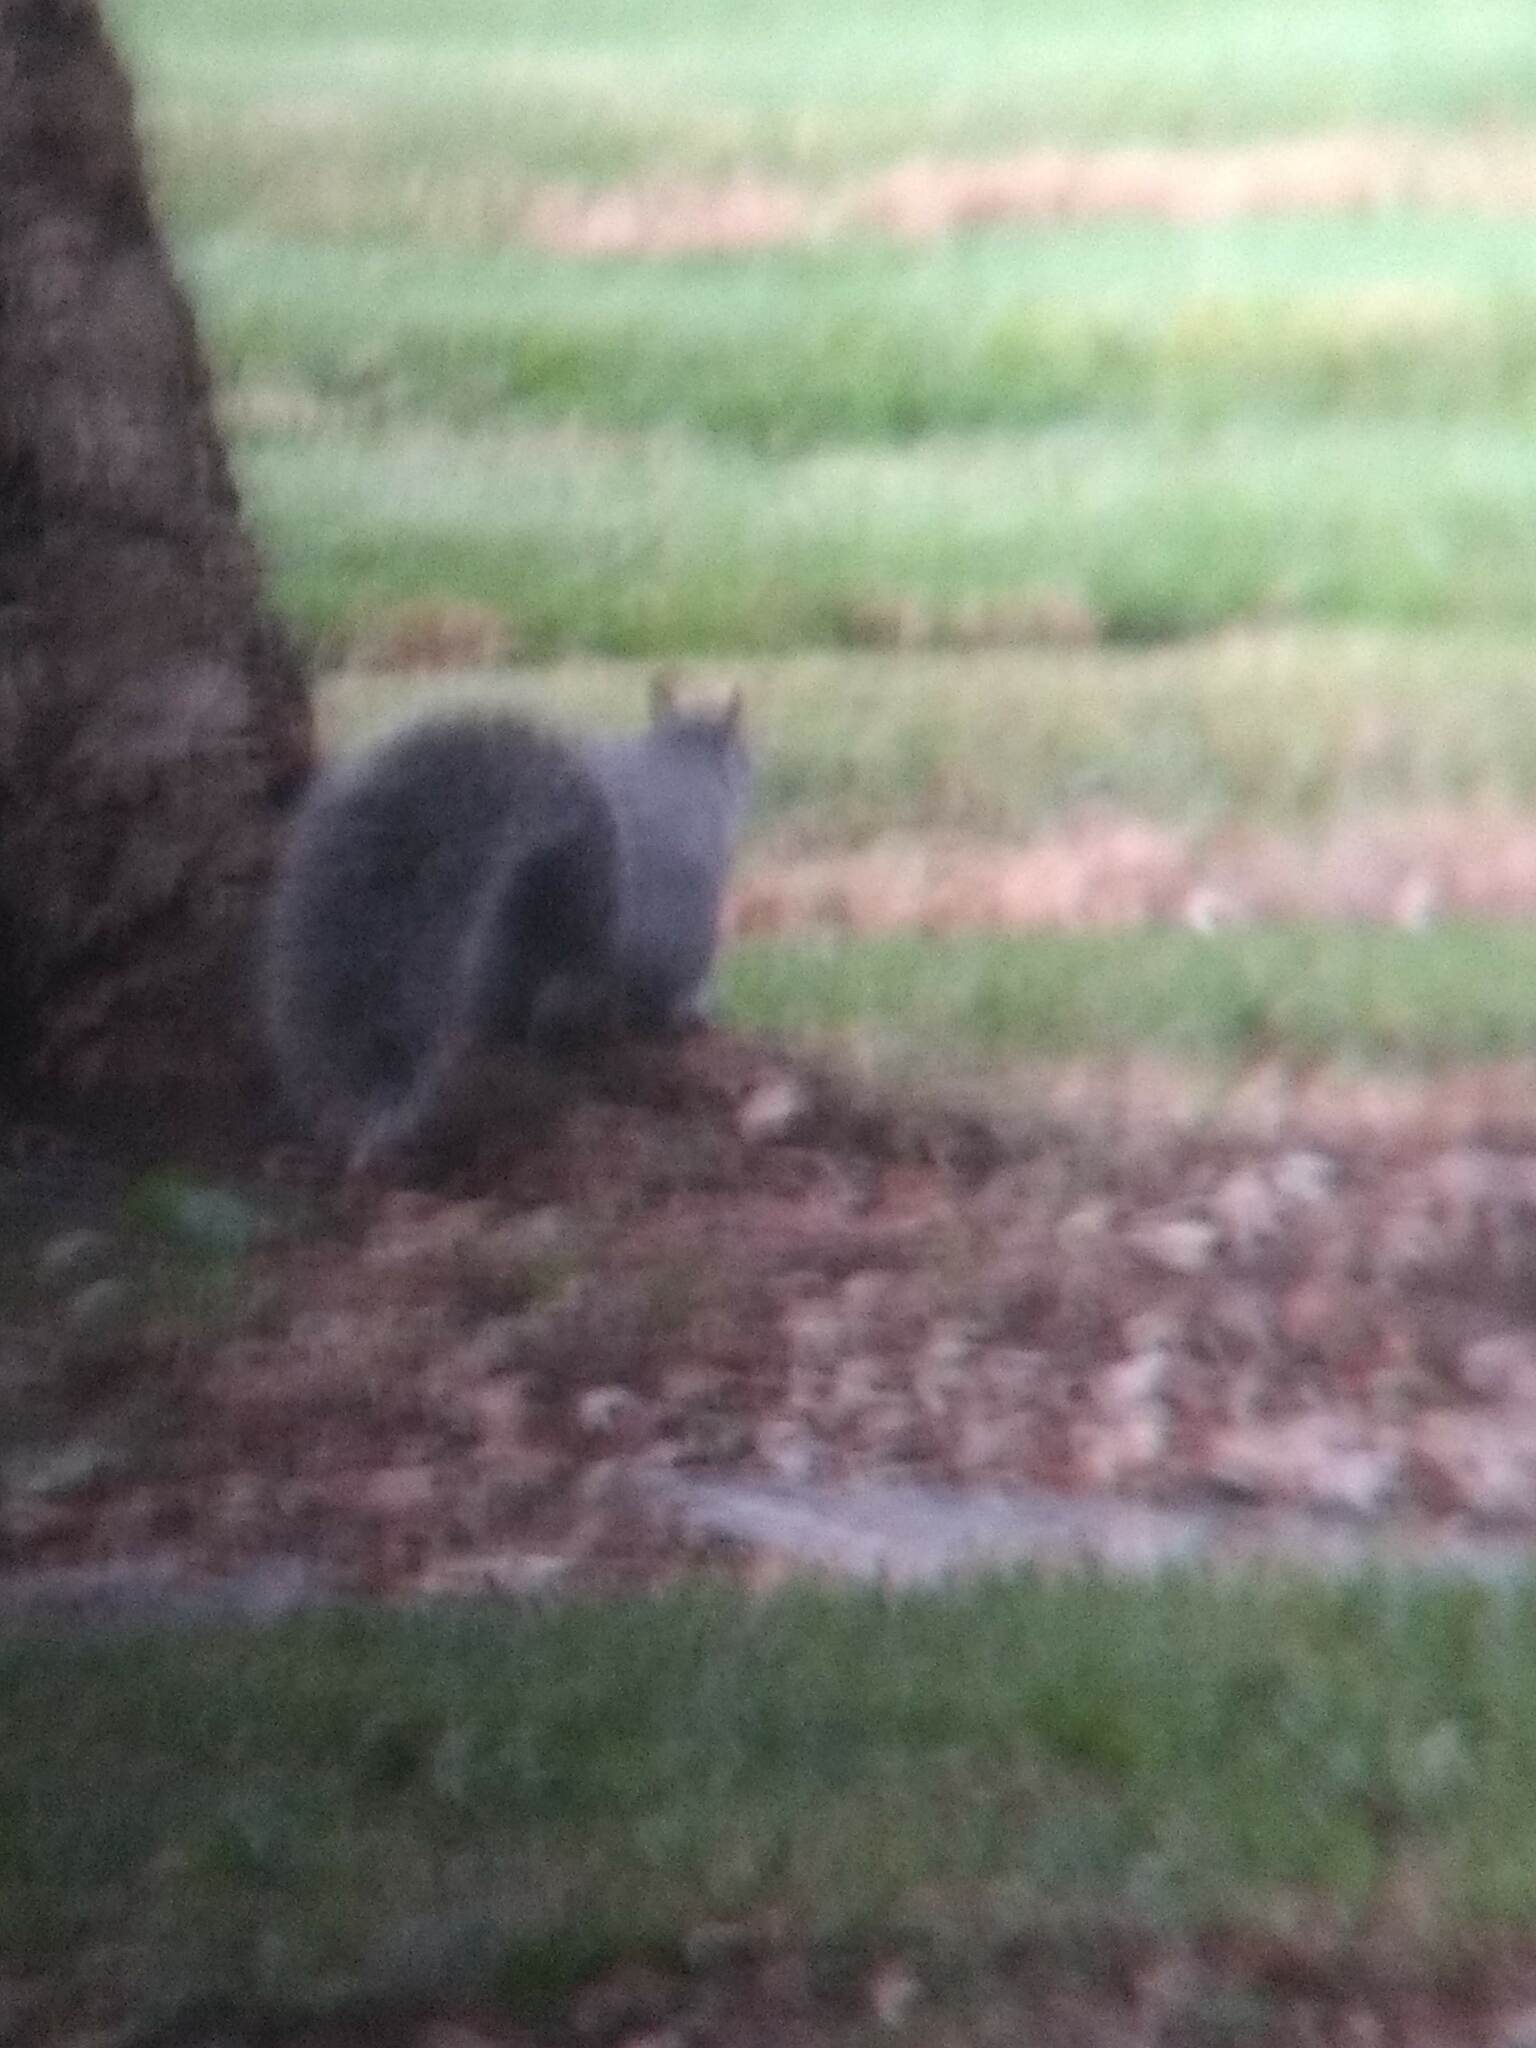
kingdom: Animalia
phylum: Chordata
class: Mammalia
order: Rodentia
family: Sciuridae
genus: Sciurus
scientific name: Sciurus griseus
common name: Western gray squirrel
